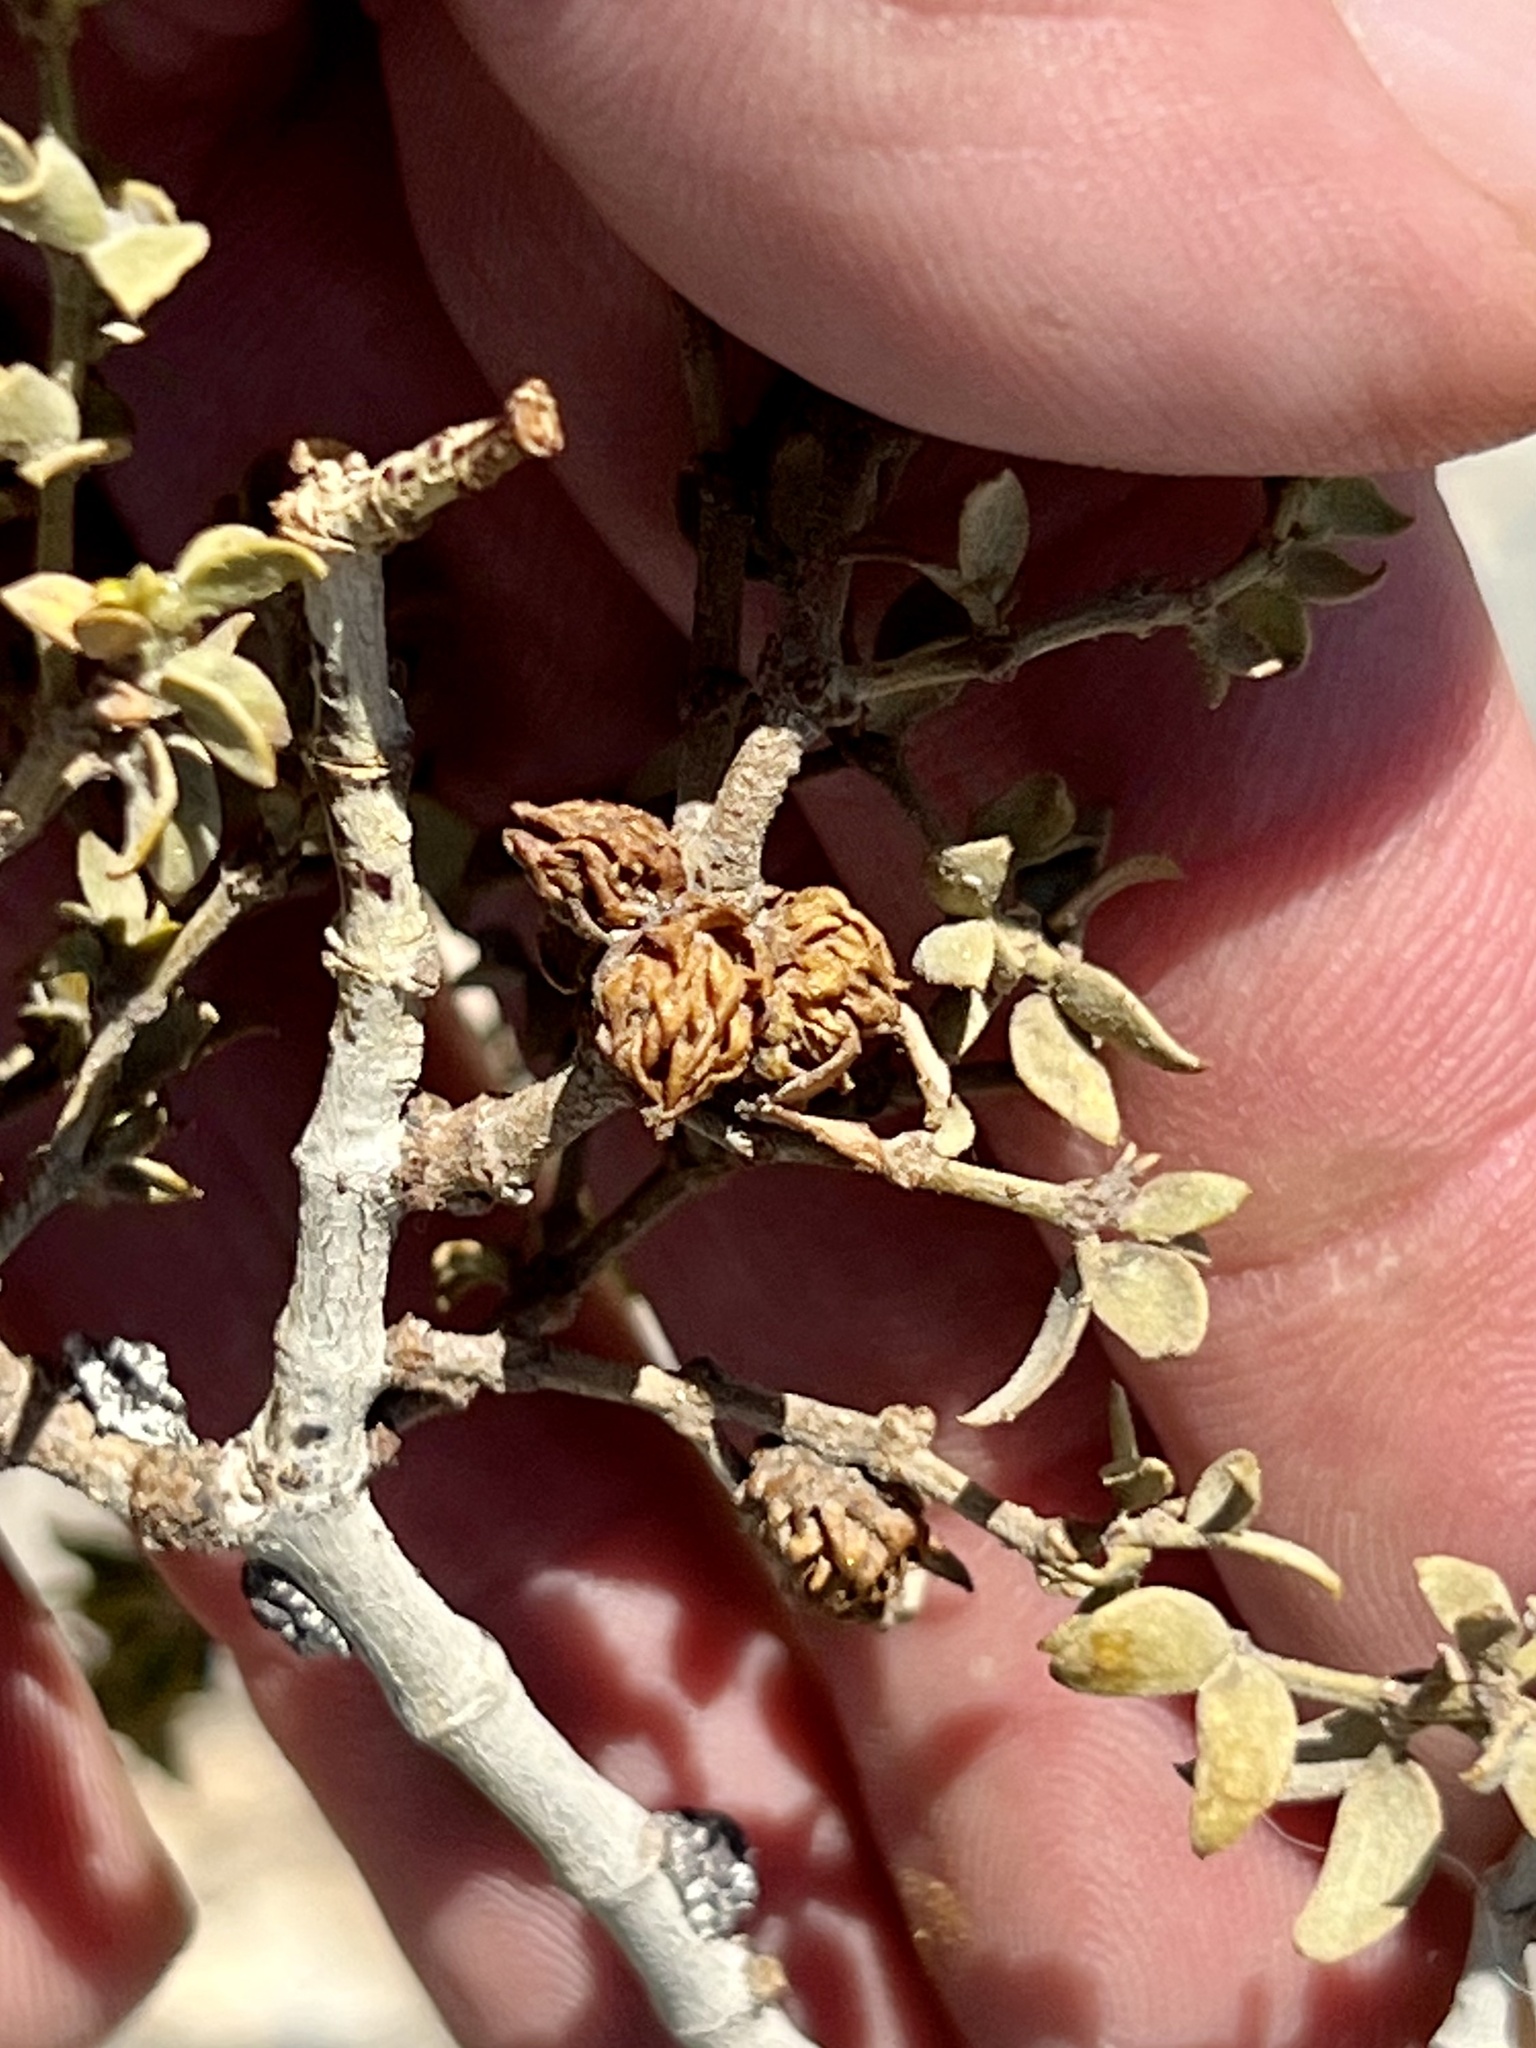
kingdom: Animalia
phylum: Arthropoda
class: Insecta
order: Diptera
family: Cecidomyiidae
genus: Asphondylia
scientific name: Asphondylia rosetta
